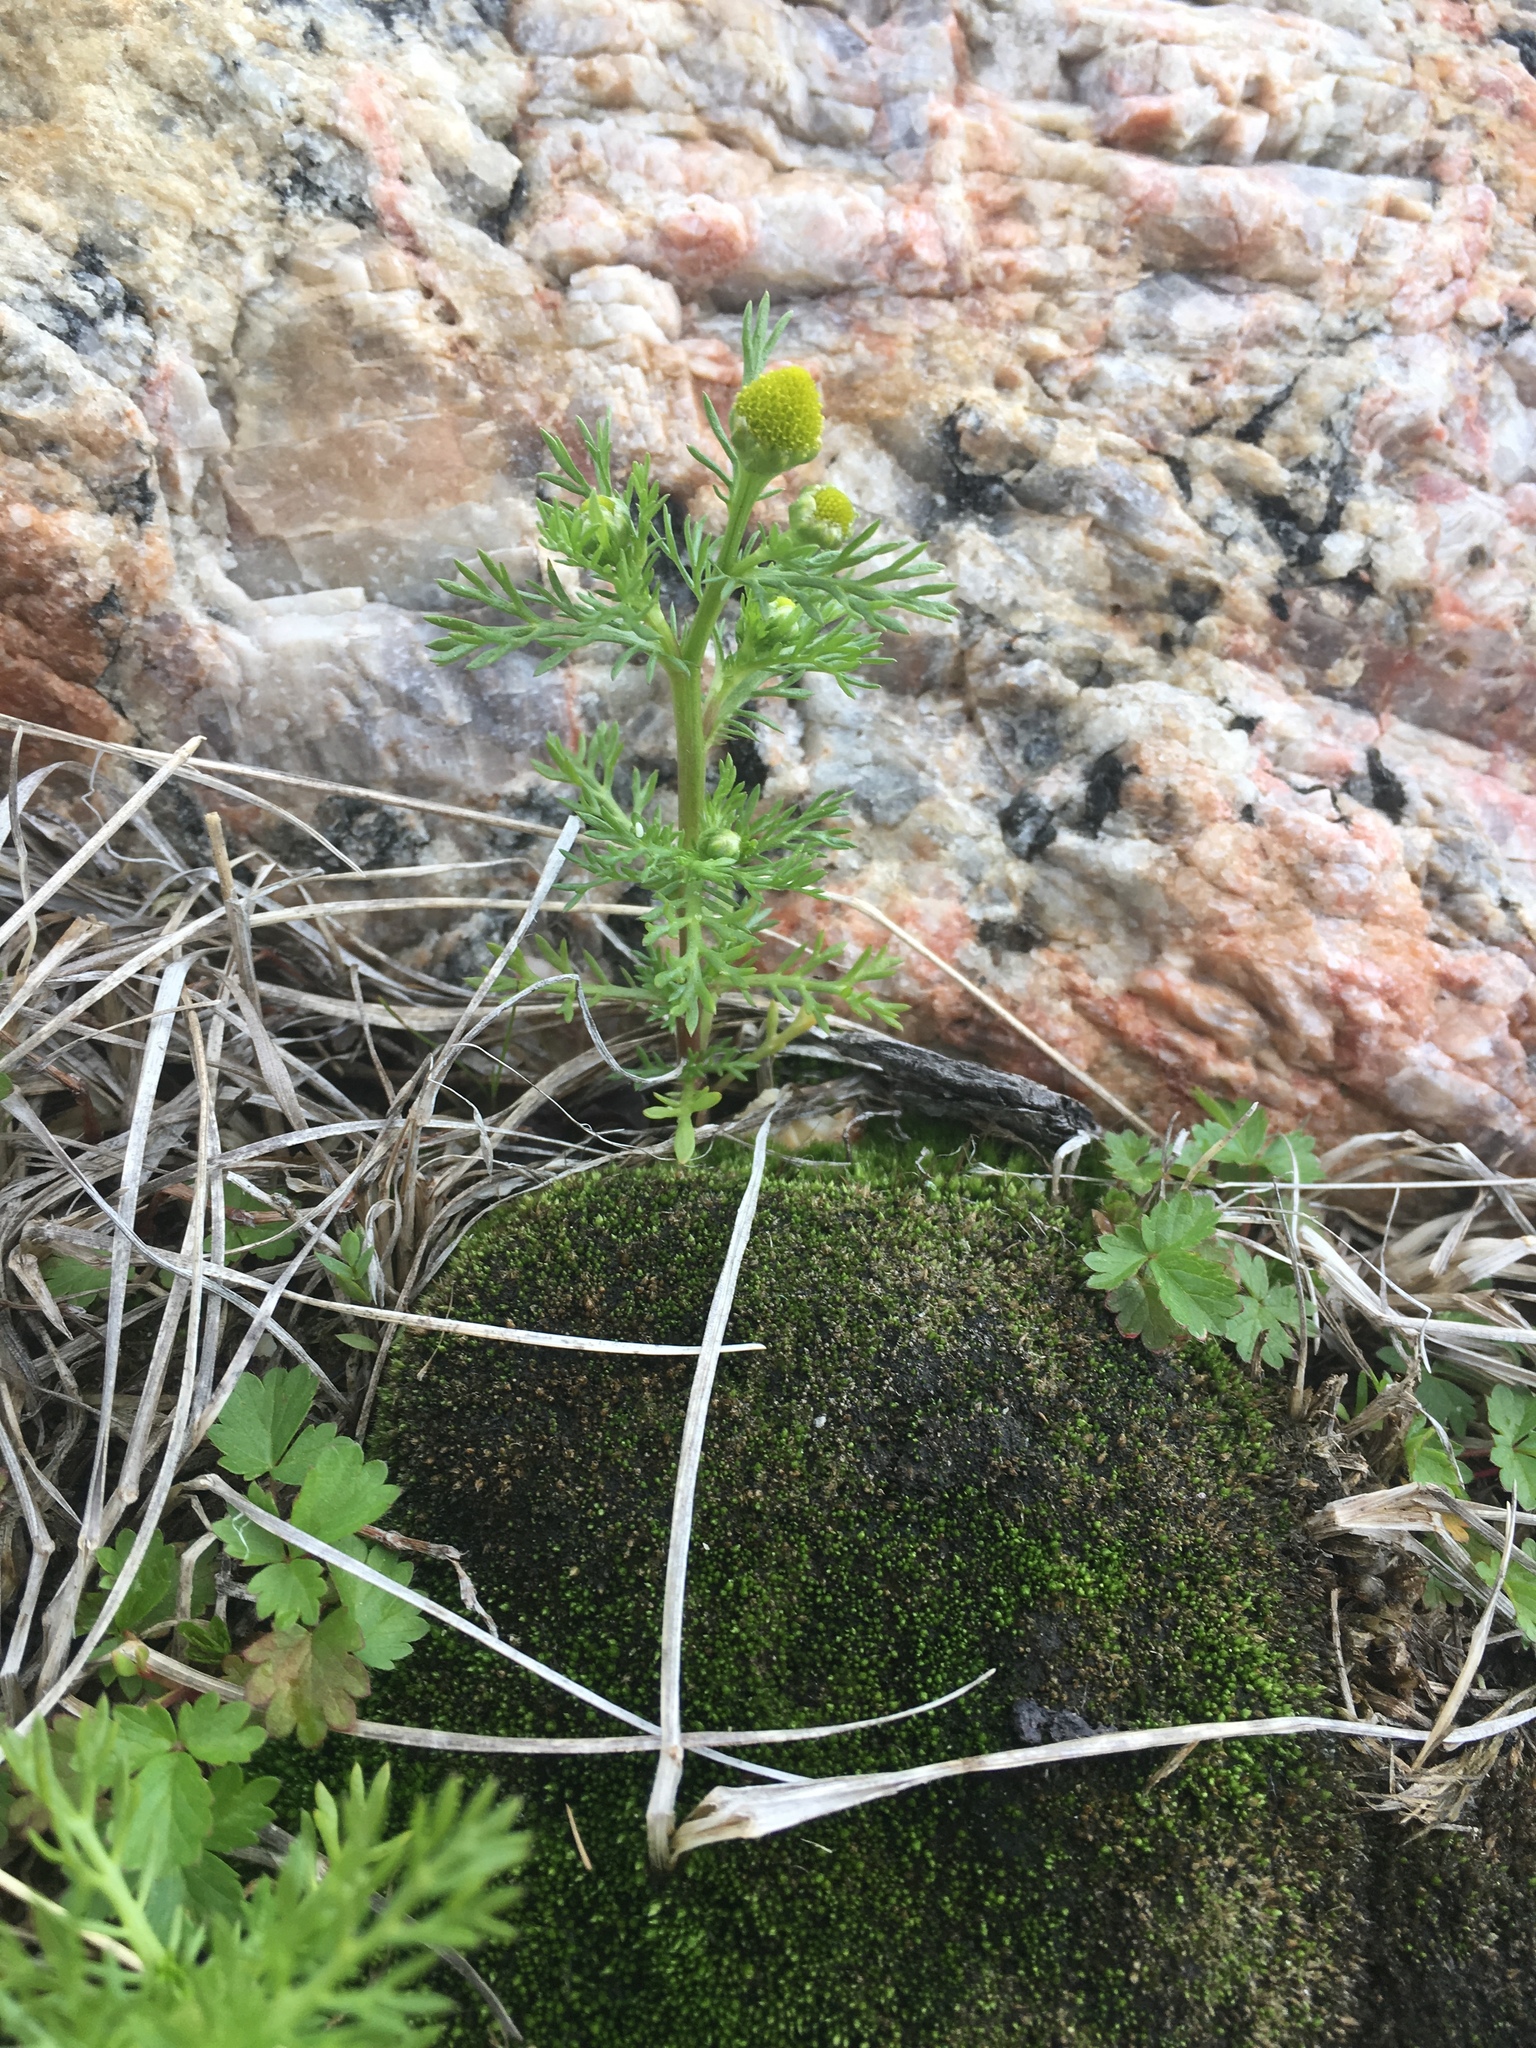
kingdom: Plantae
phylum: Tracheophyta
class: Magnoliopsida
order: Asterales
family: Asteraceae
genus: Matricaria
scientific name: Matricaria discoidea
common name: Disc mayweed
